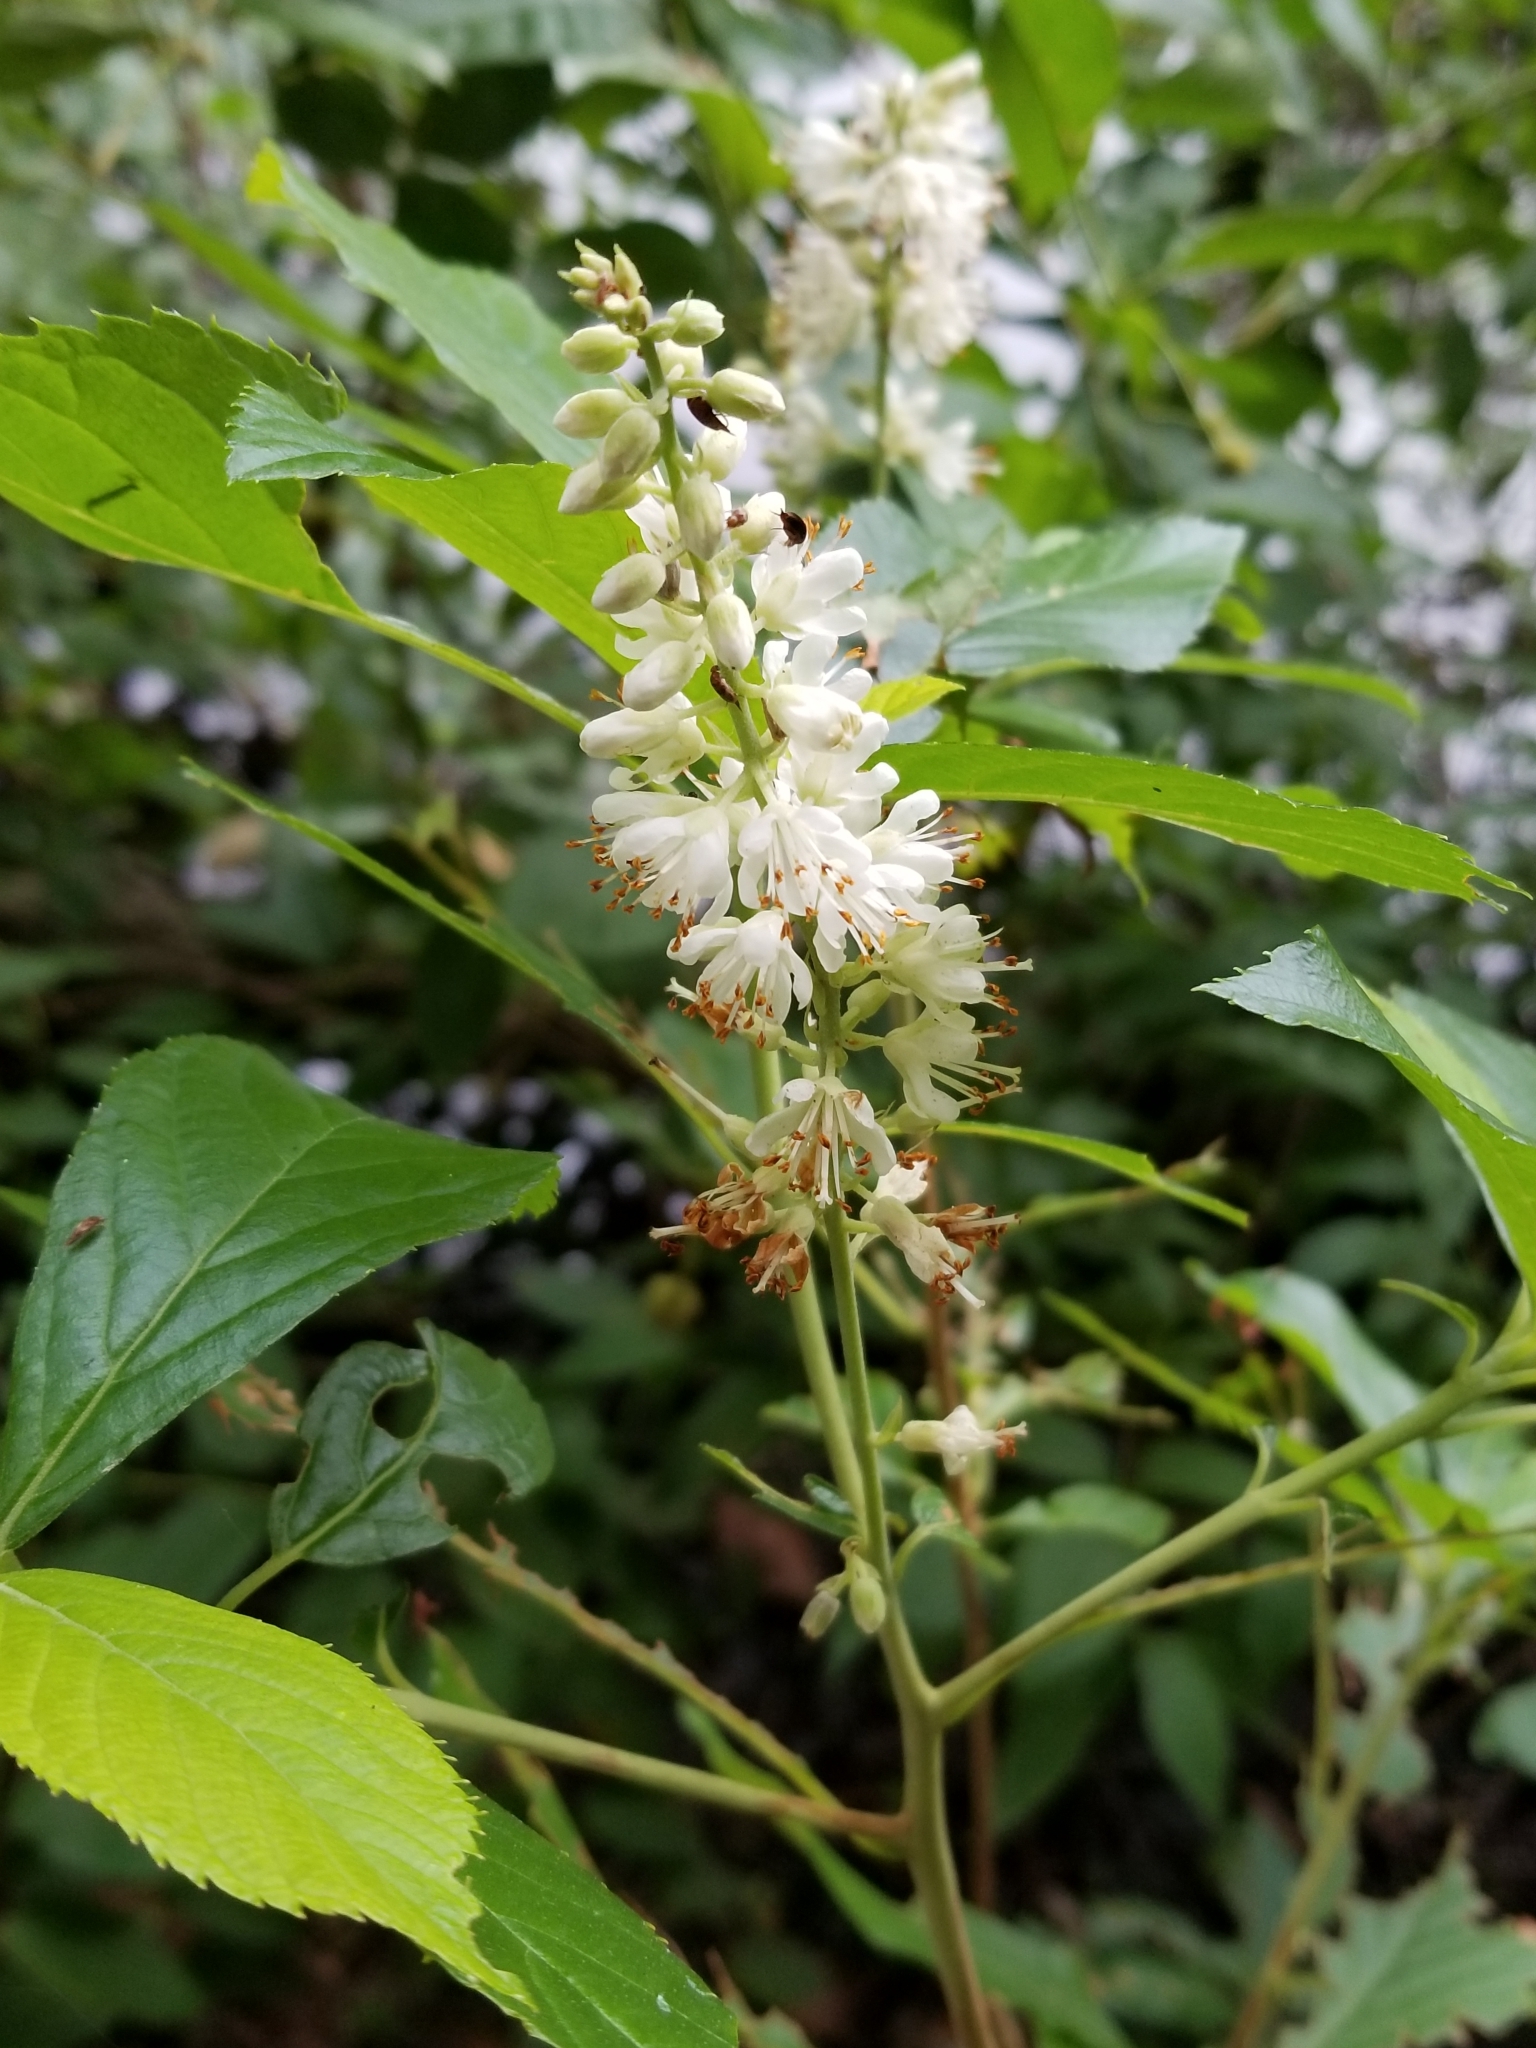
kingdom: Plantae
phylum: Tracheophyta
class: Magnoliopsida
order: Ericales
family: Clethraceae
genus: Clethra
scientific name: Clethra alnifolia
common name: Sweet pepperbush
